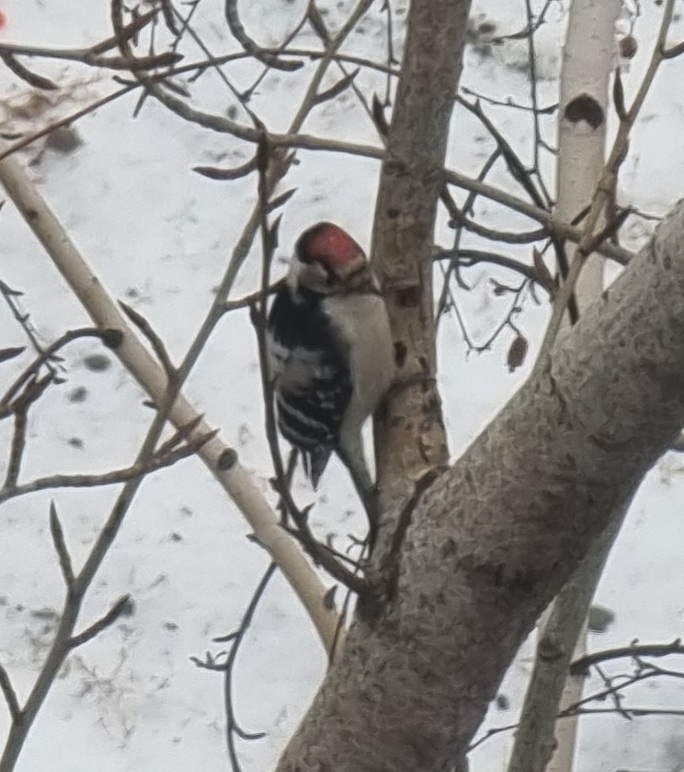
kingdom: Animalia
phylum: Chordata
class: Aves
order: Piciformes
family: Picidae
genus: Dryobates
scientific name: Dryobates minor
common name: Lesser spotted woodpecker
